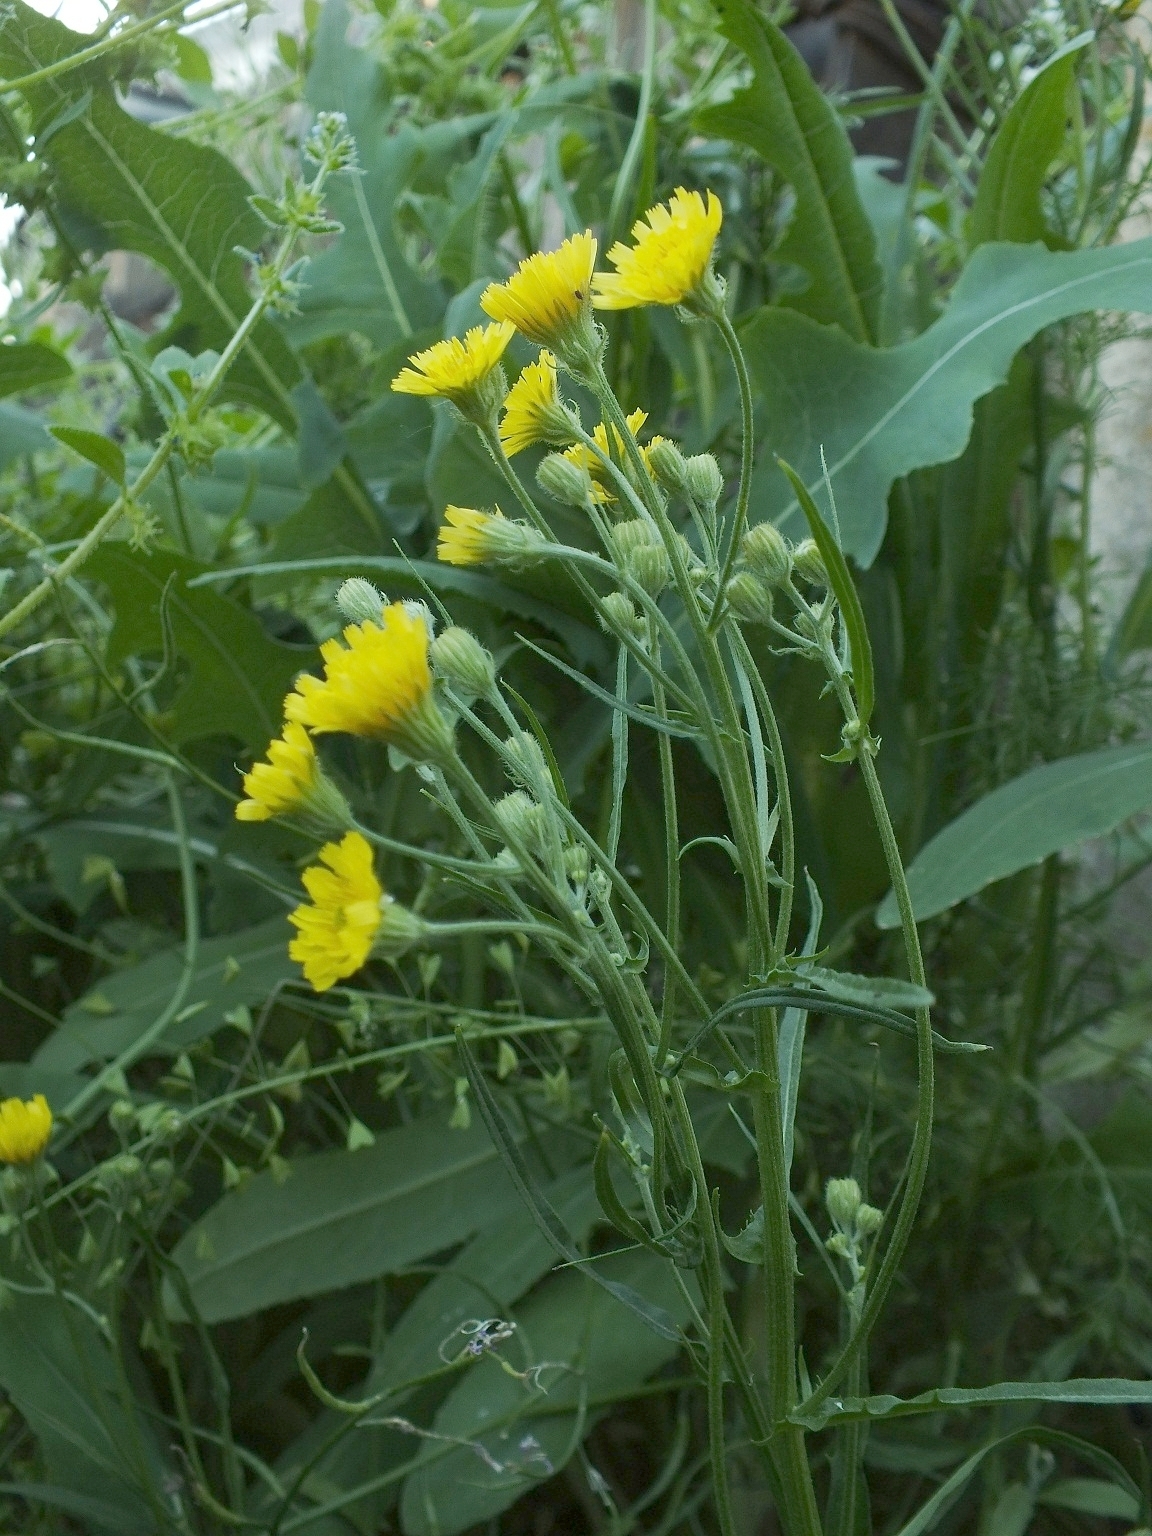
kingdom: Plantae
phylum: Tracheophyta
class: Magnoliopsida
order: Asterales
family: Asteraceae
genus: Crepis
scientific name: Crepis tectorum
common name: Narrow-leaved hawk's-beard
